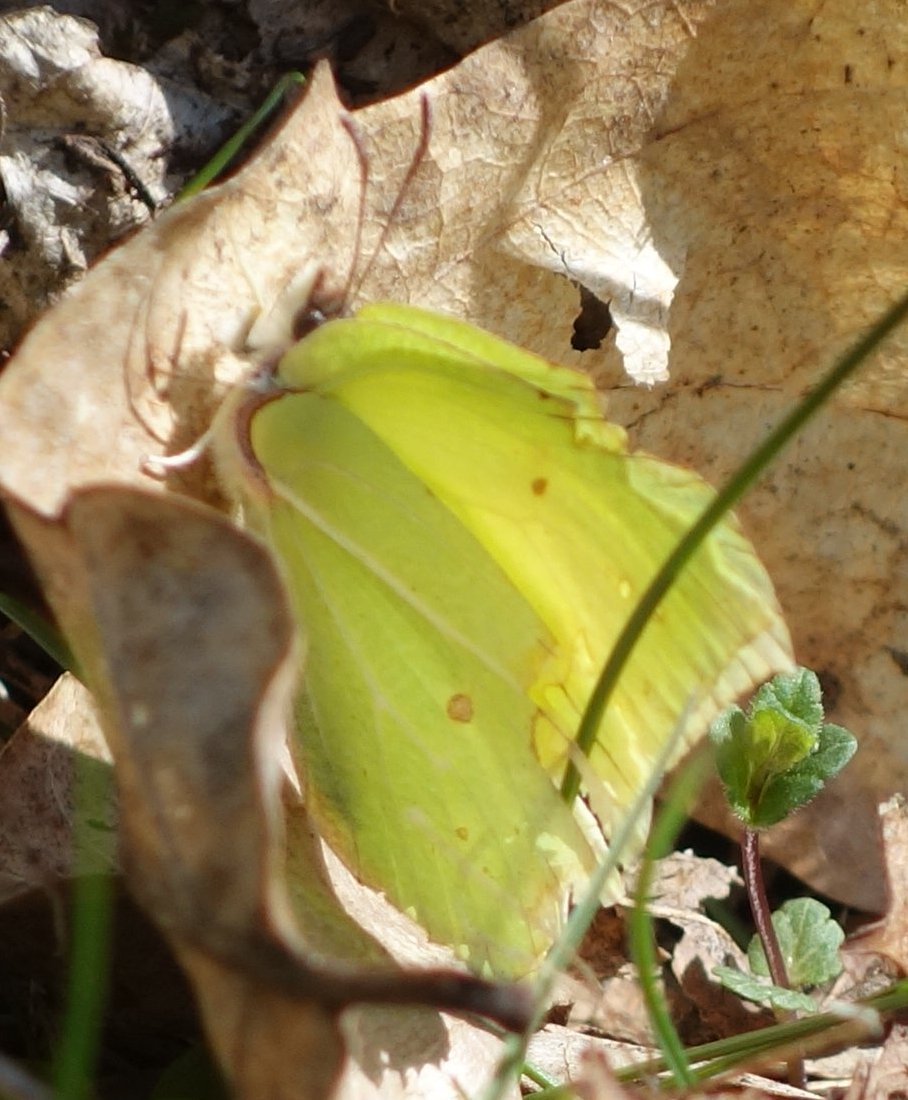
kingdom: Animalia
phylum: Arthropoda
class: Insecta
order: Lepidoptera
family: Pieridae
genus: Gonepteryx
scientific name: Gonepteryx rhamni
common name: Brimstone
